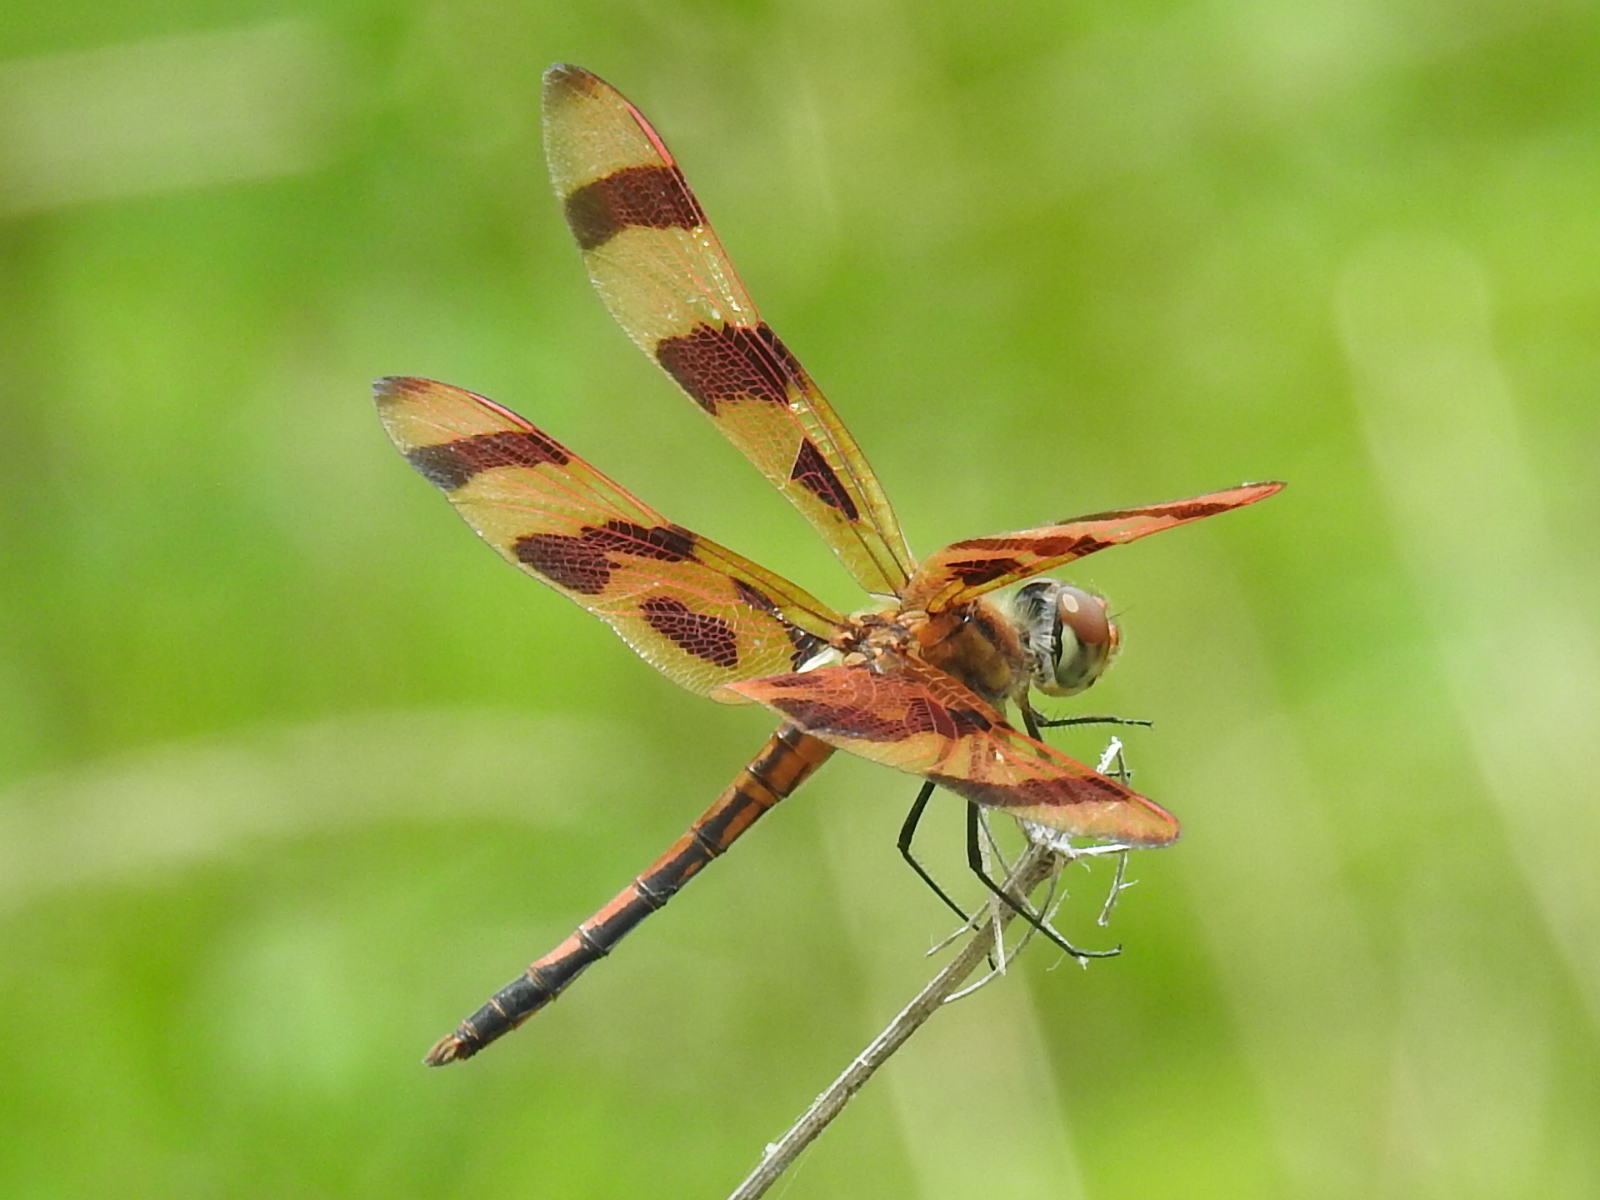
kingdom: Animalia
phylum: Arthropoda
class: Insecta
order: Odonata
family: Libellulidae
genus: Celithemis
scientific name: Celithemis eponina
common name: Halloween pennant
